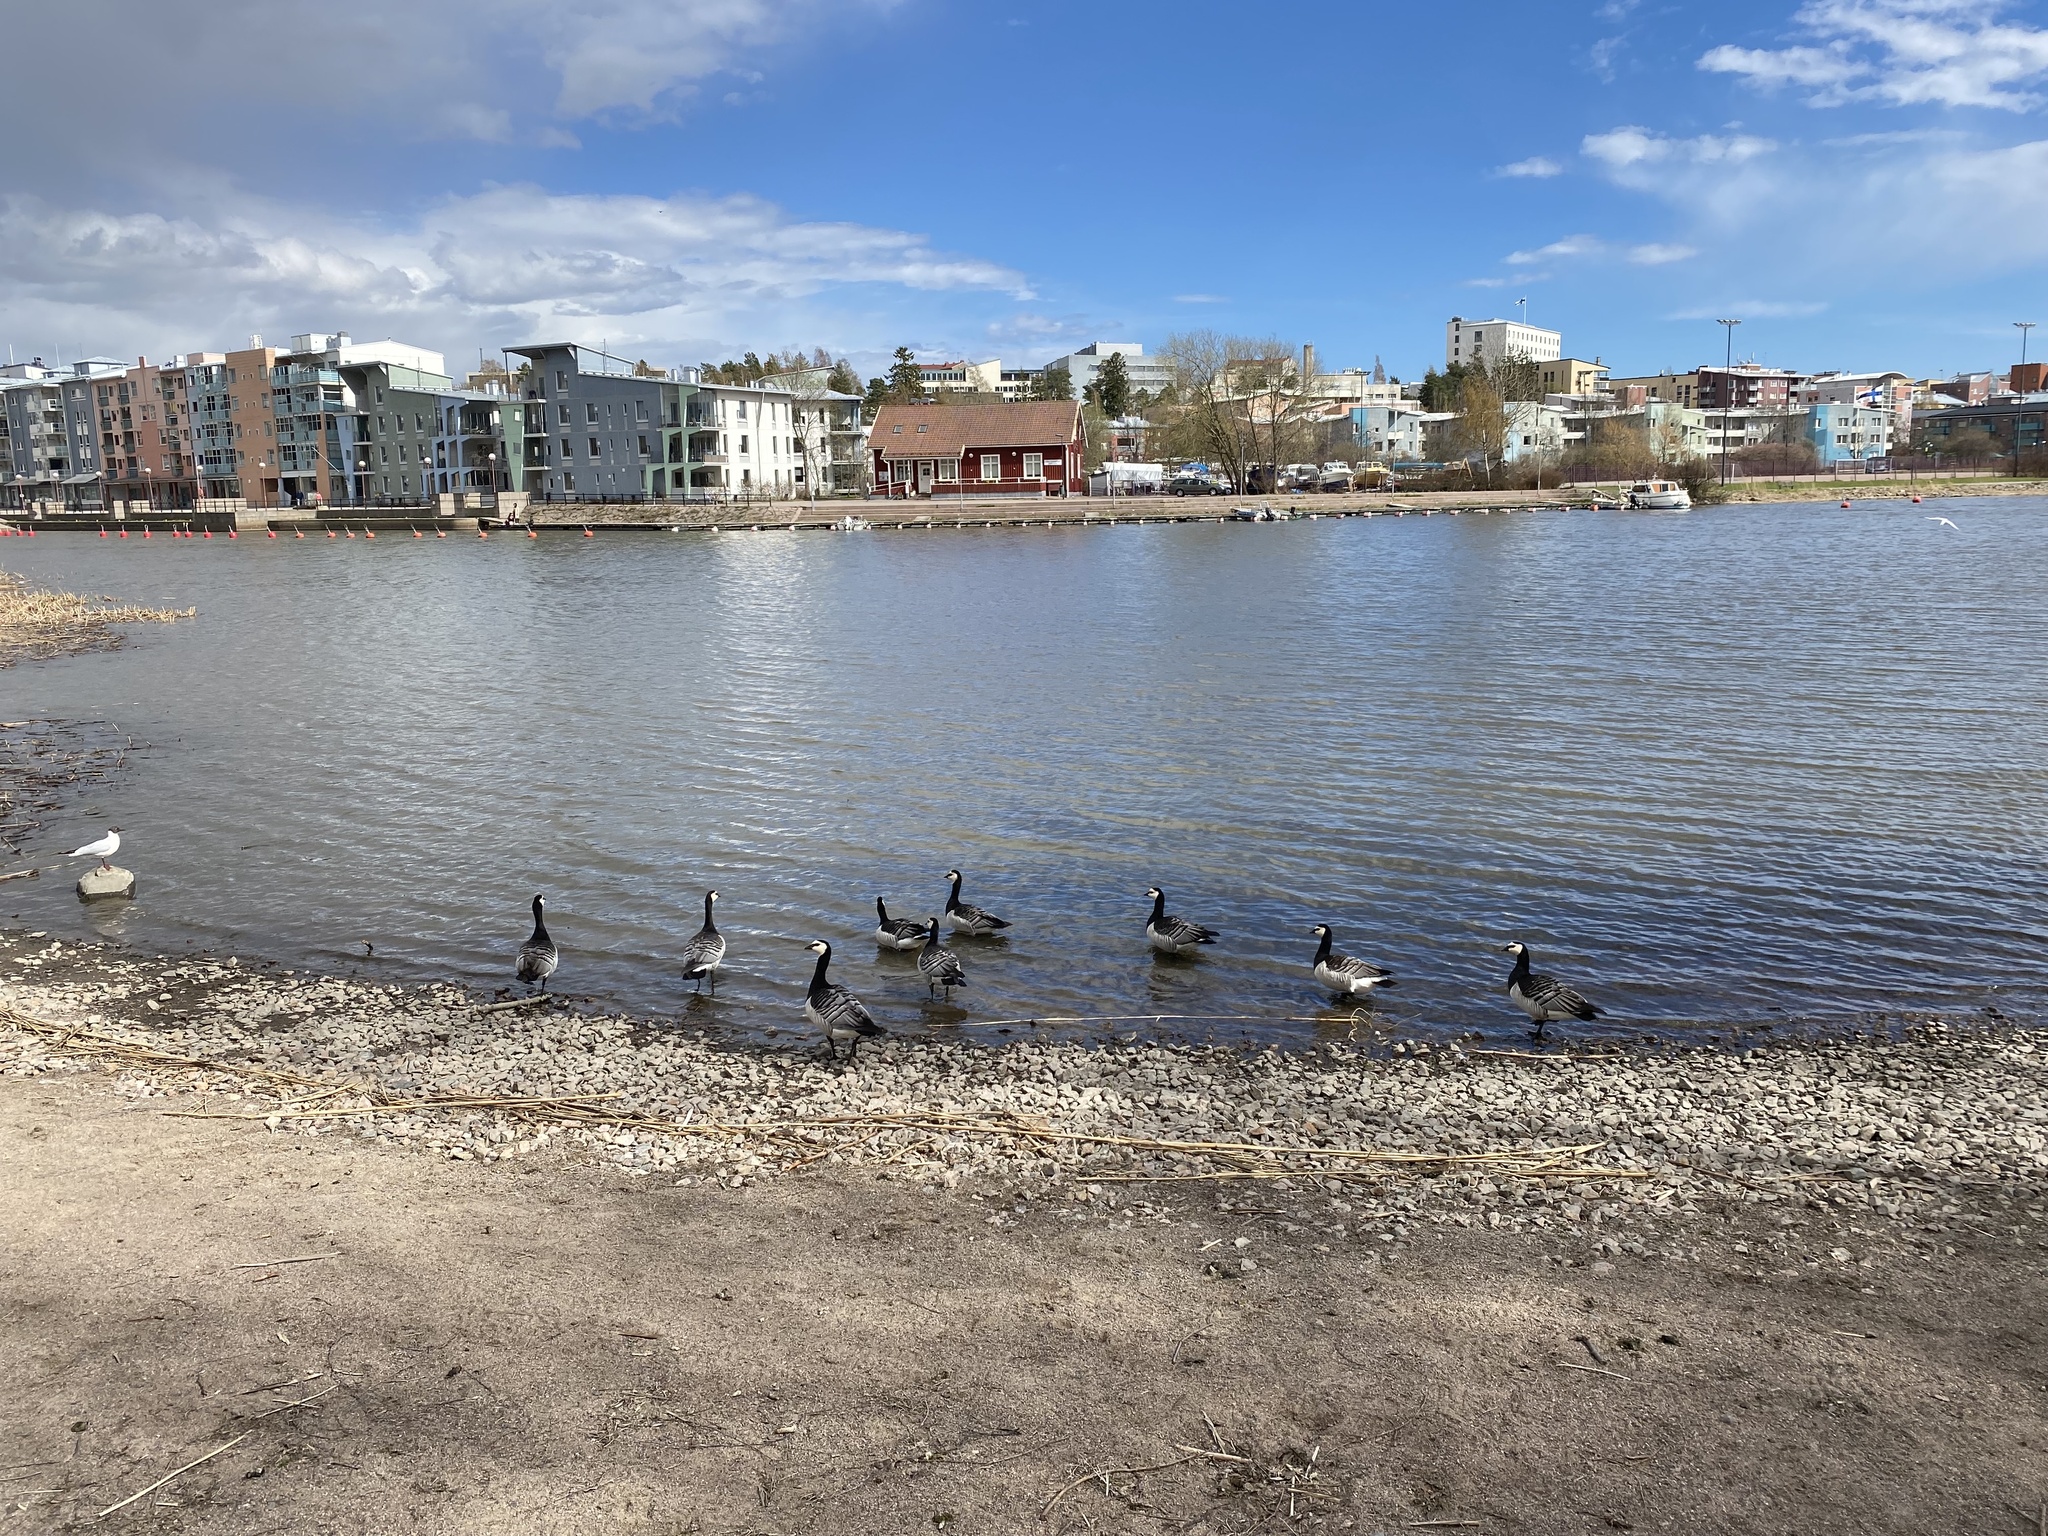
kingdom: Animalia
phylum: Chordata
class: Aves
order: Anseriformes
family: Anatidae
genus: Branta
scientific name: Branta leucopsis
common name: Barnacle goose
